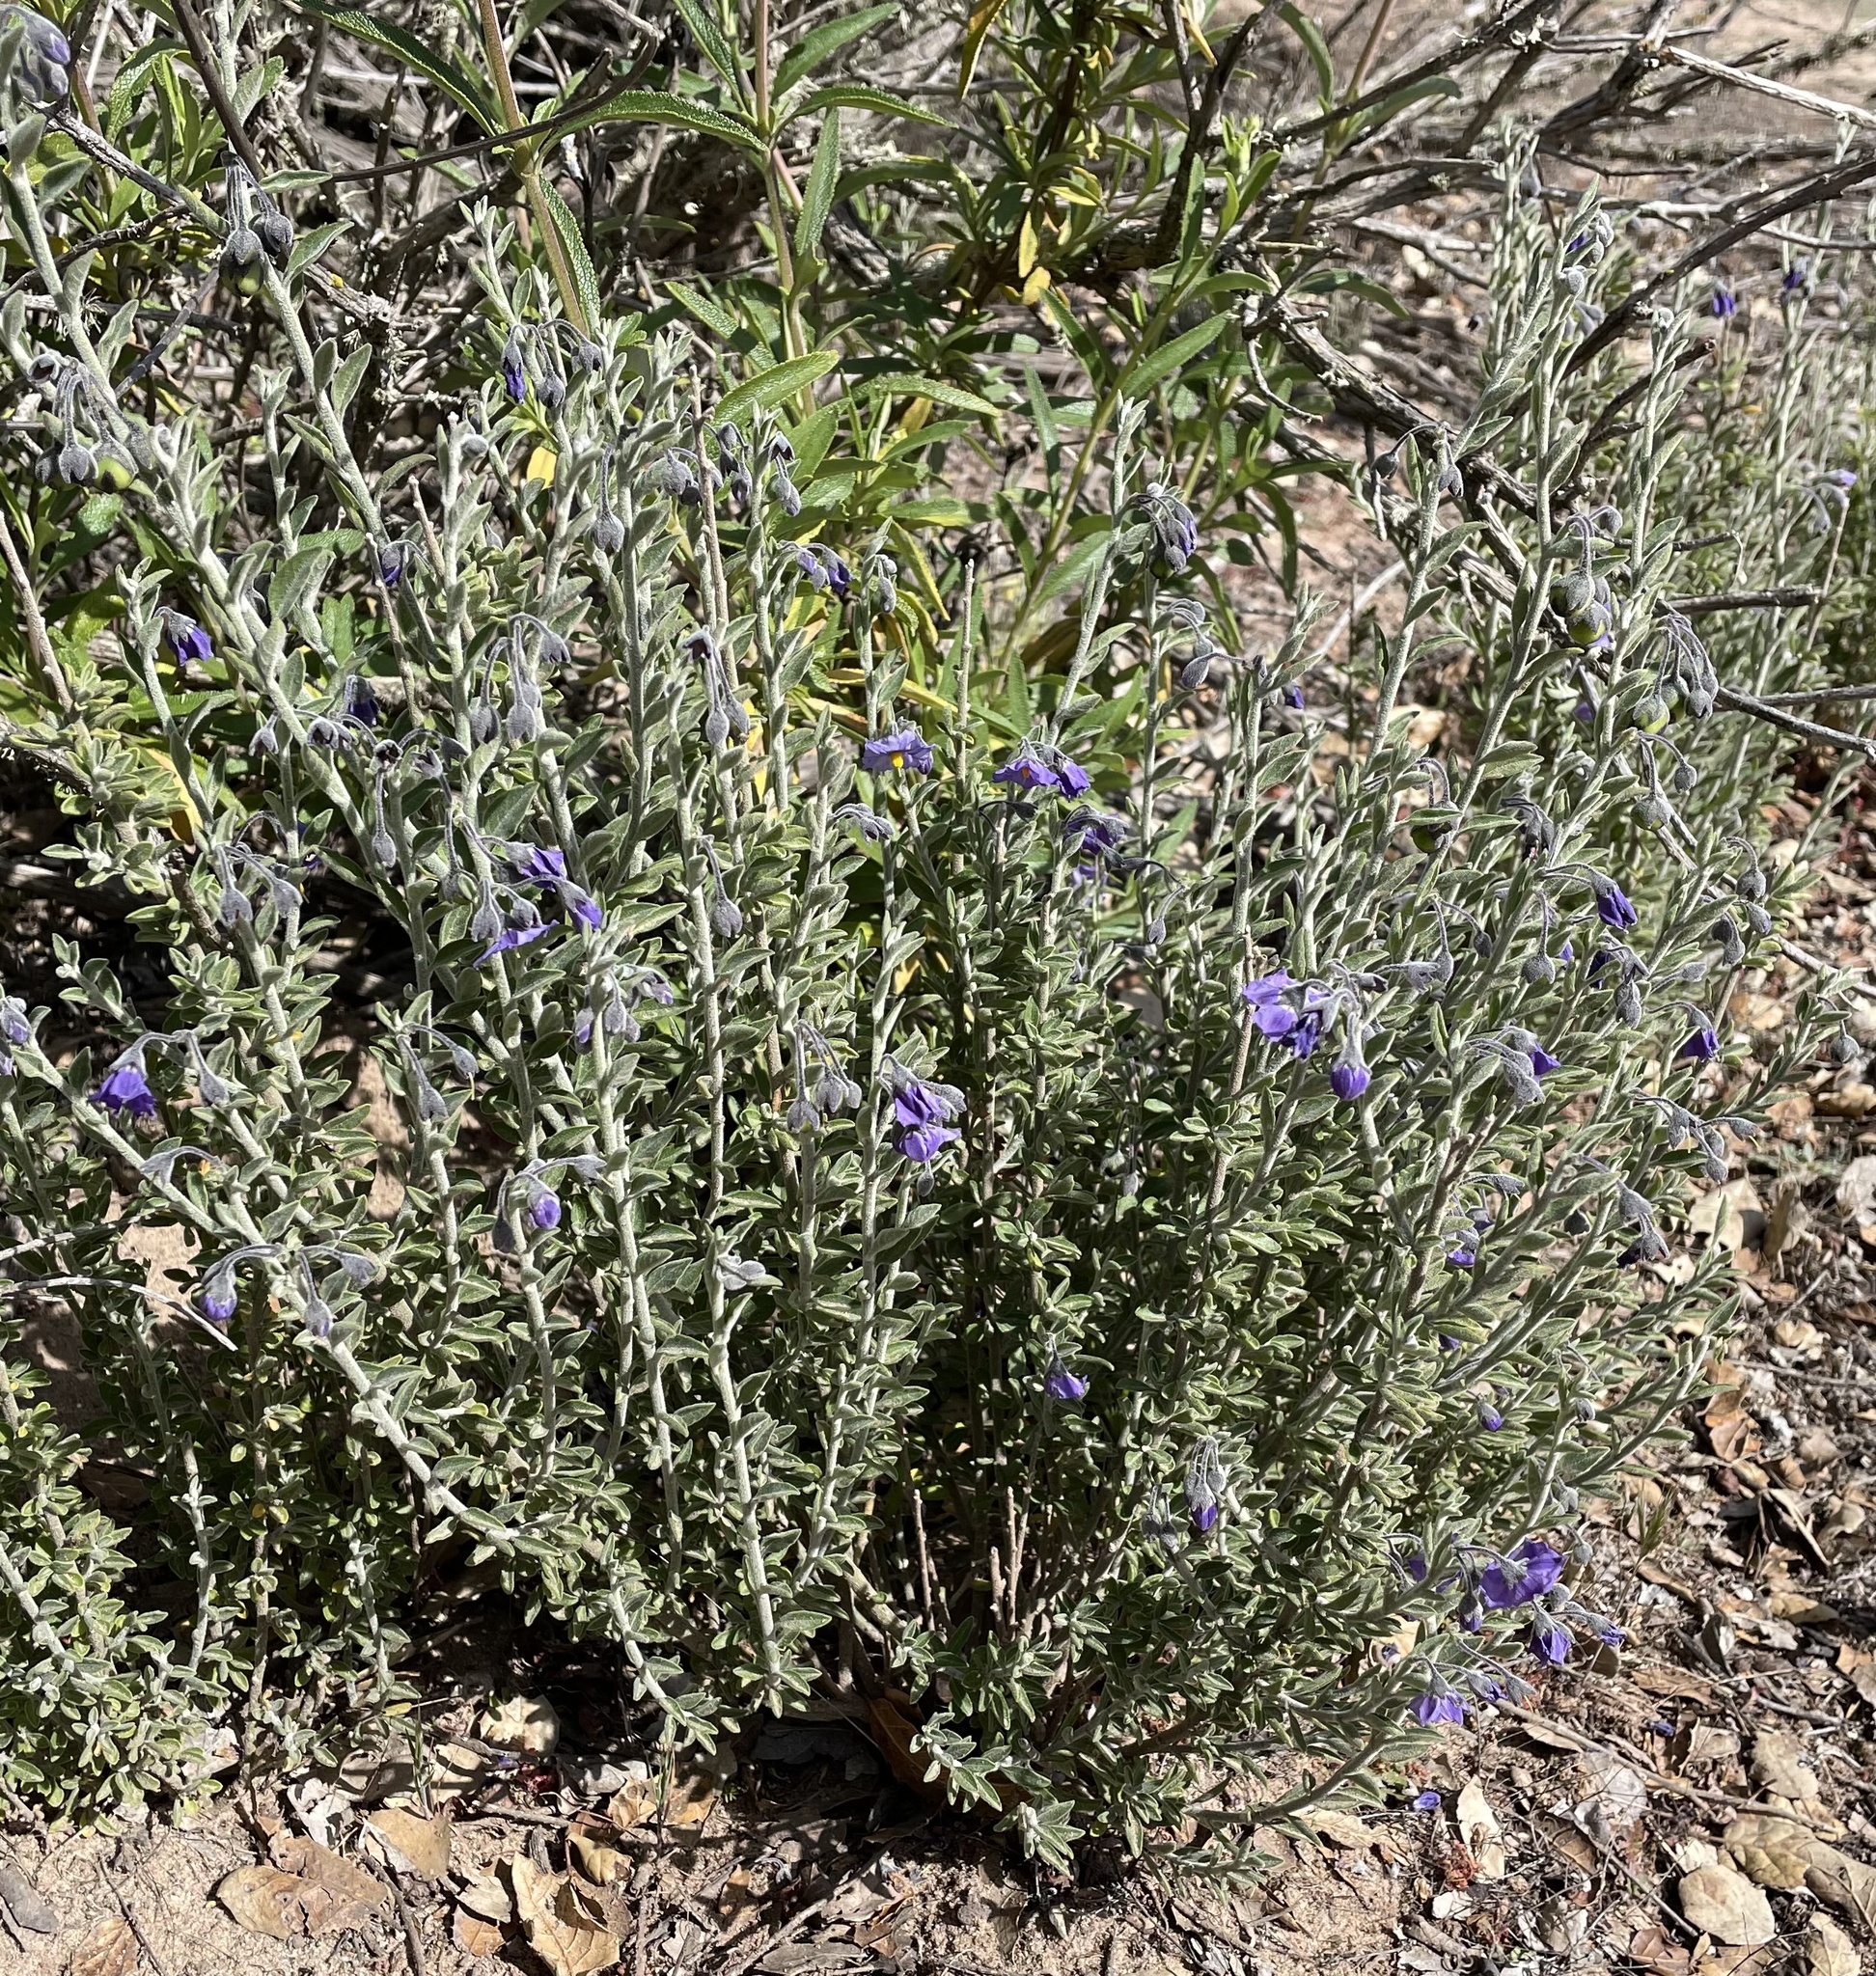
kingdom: Plantae
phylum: Tracheophyta
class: Magnoliopsida
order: Solanales
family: Solanaceae
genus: Solanum
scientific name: Solanum umbelliferum
